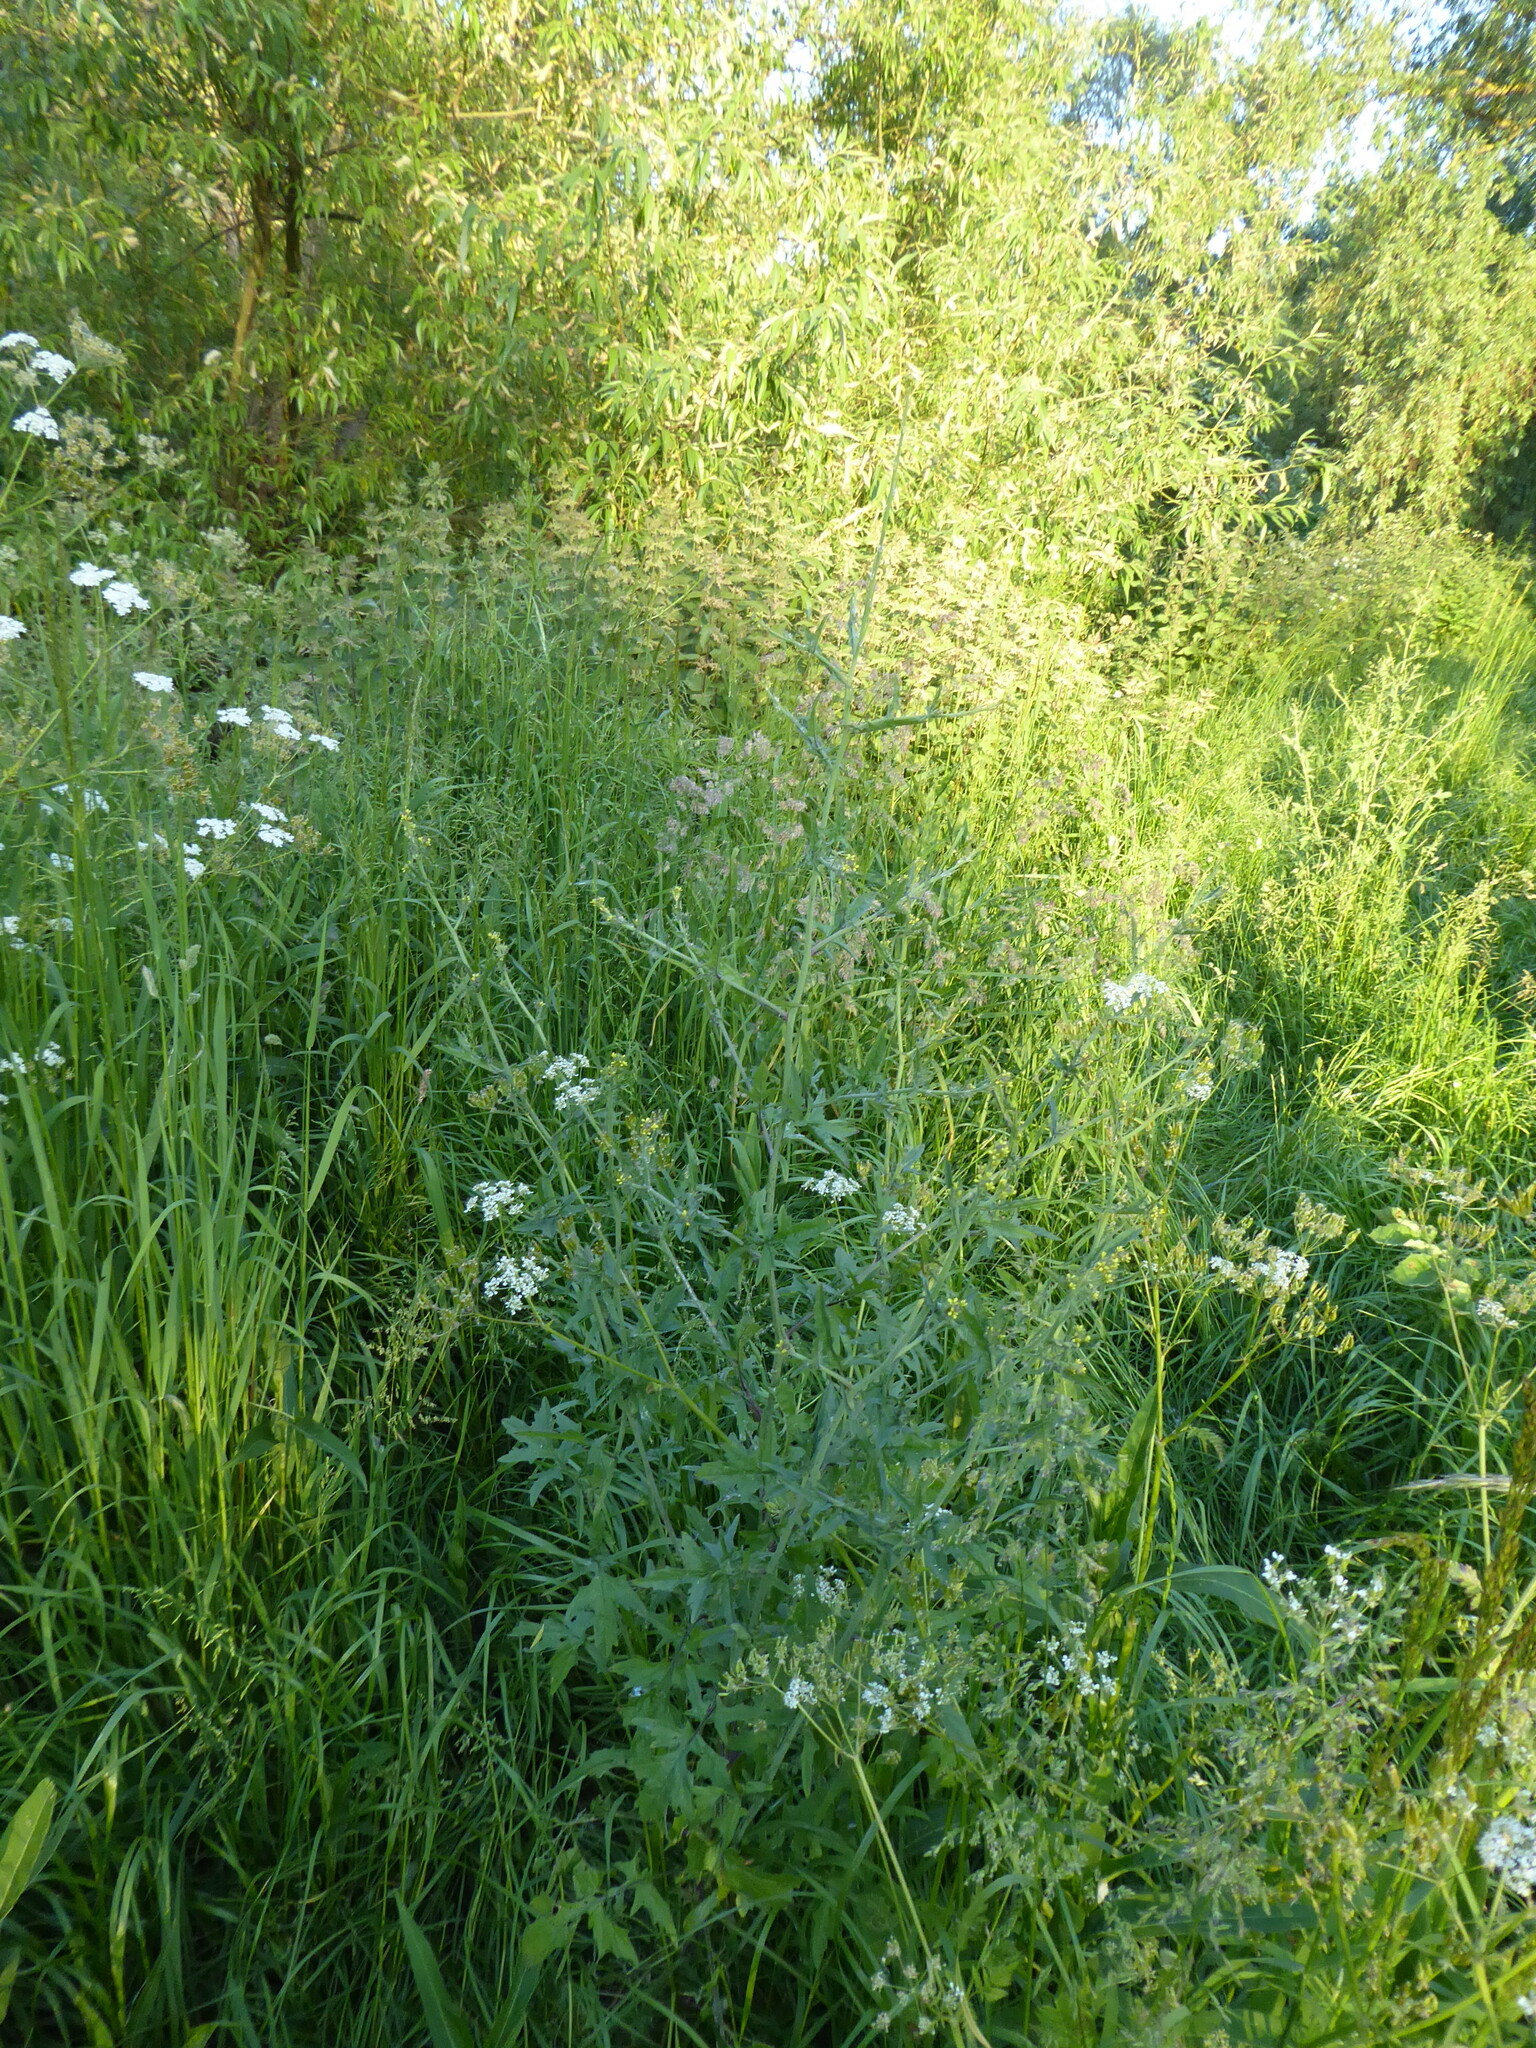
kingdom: Plantae
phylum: Tracheophyta
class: Magnoliopsida
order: Brassicales
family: Brassicaceae
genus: Sisymbrium
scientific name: Sisymbrium officinale
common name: Hedge mustard
